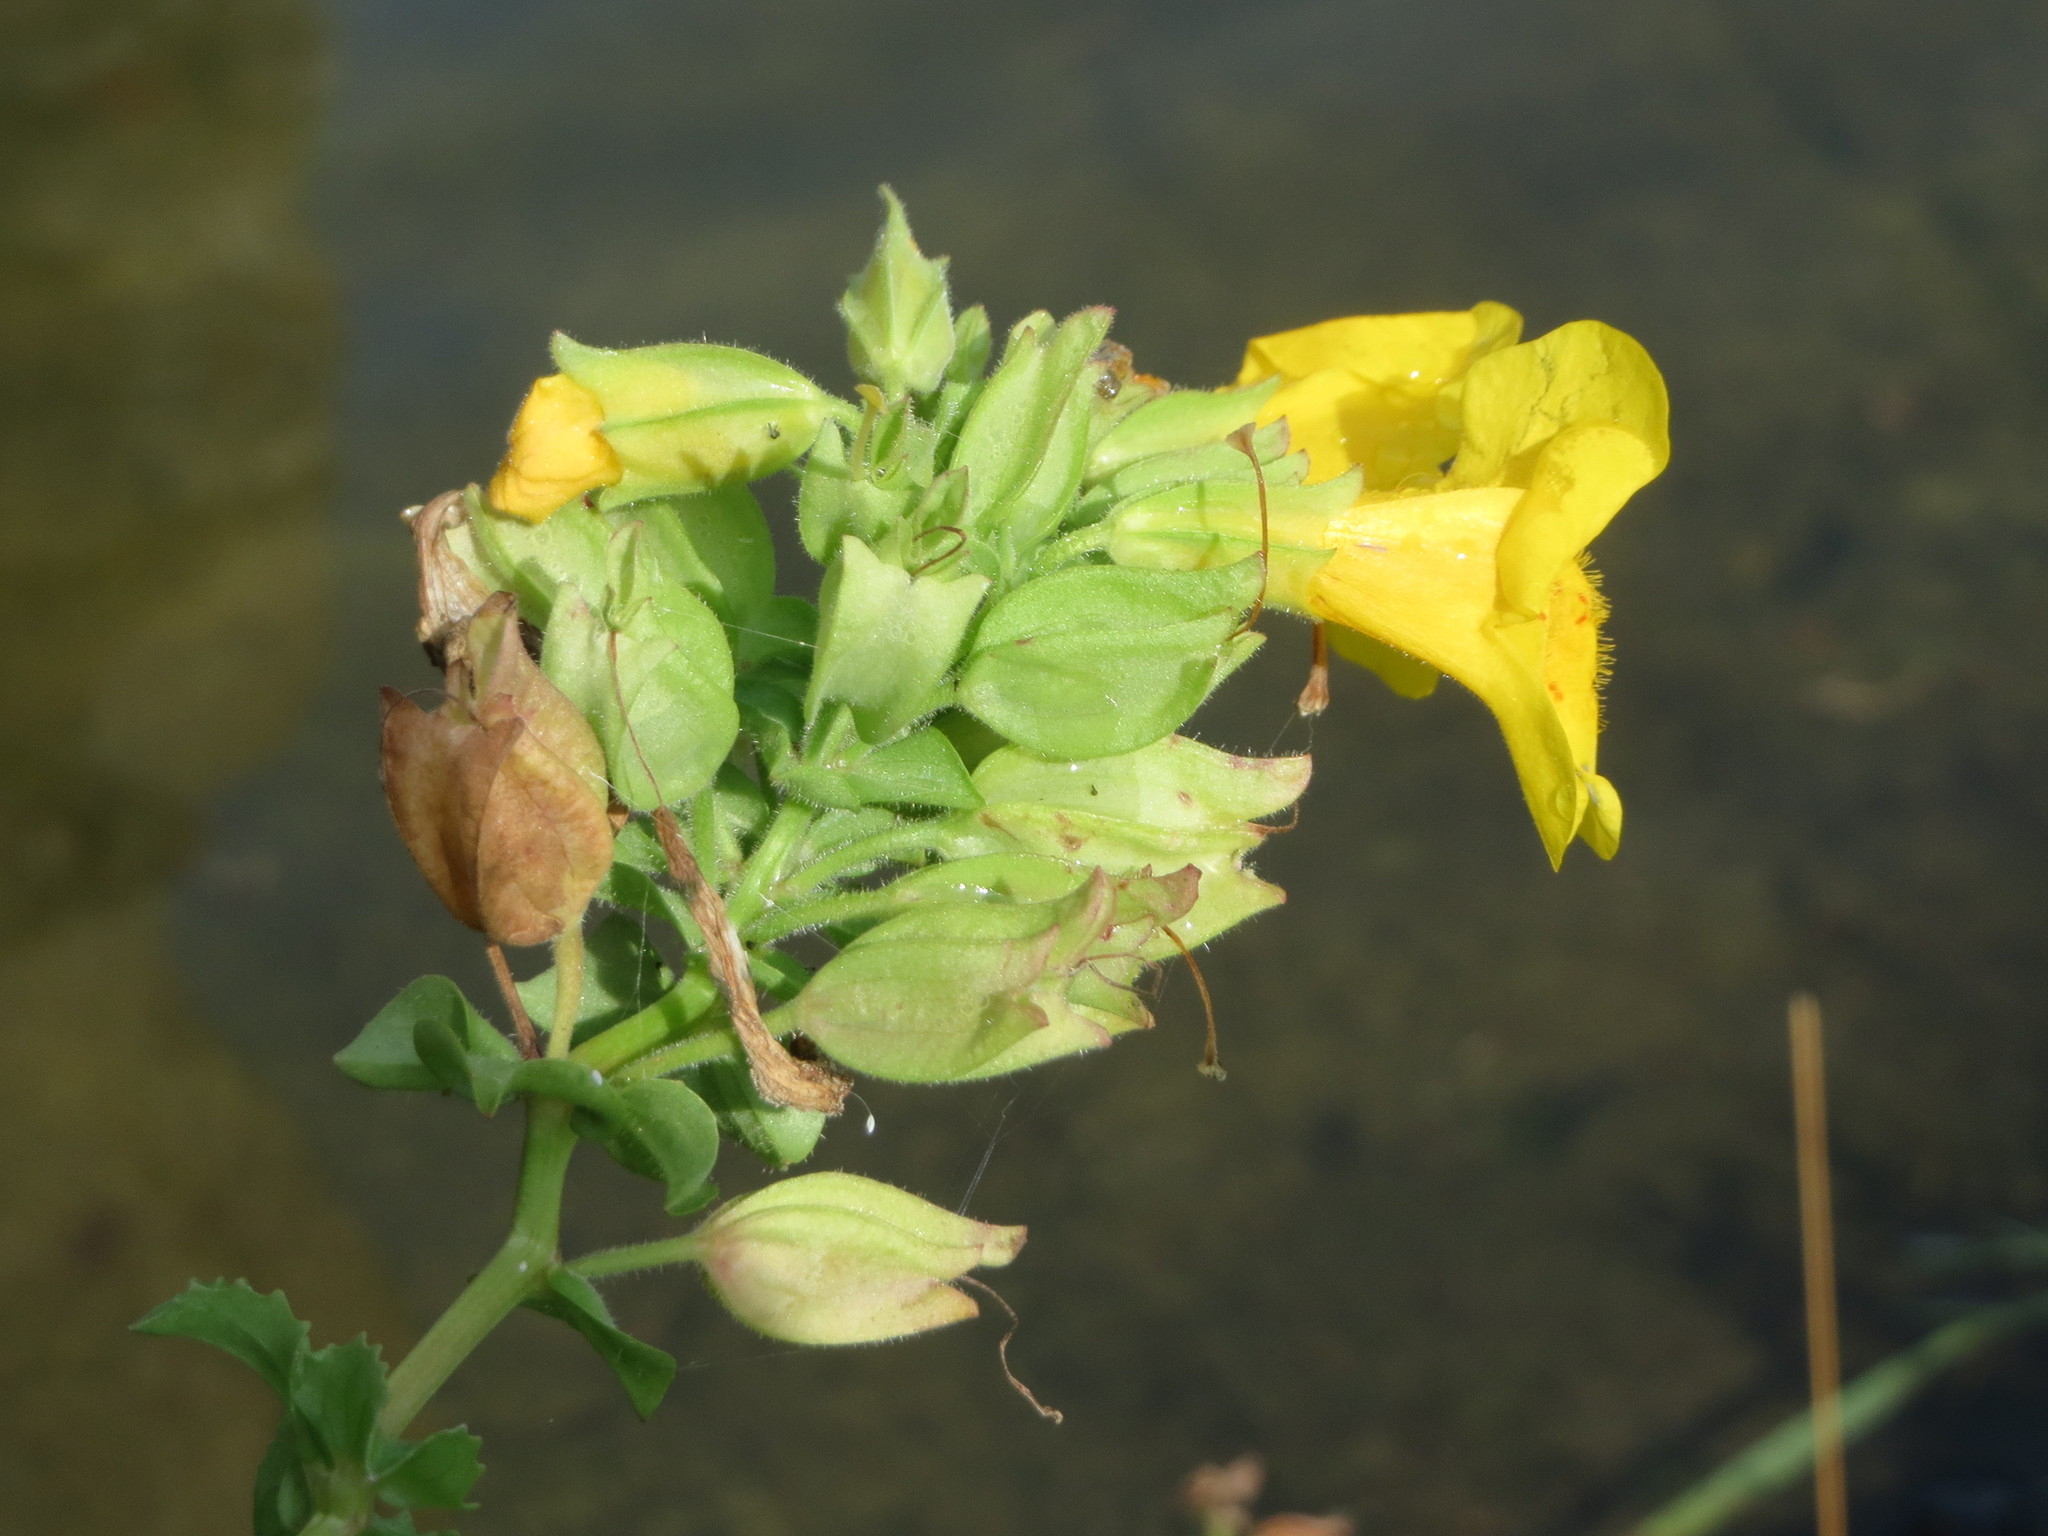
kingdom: Plantae
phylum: Tracheophyta
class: Magnoliopsida
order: Lamiales
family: Phrymaceae
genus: Erythranthe
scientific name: Erythranthe guttata
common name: Monkeyflower
